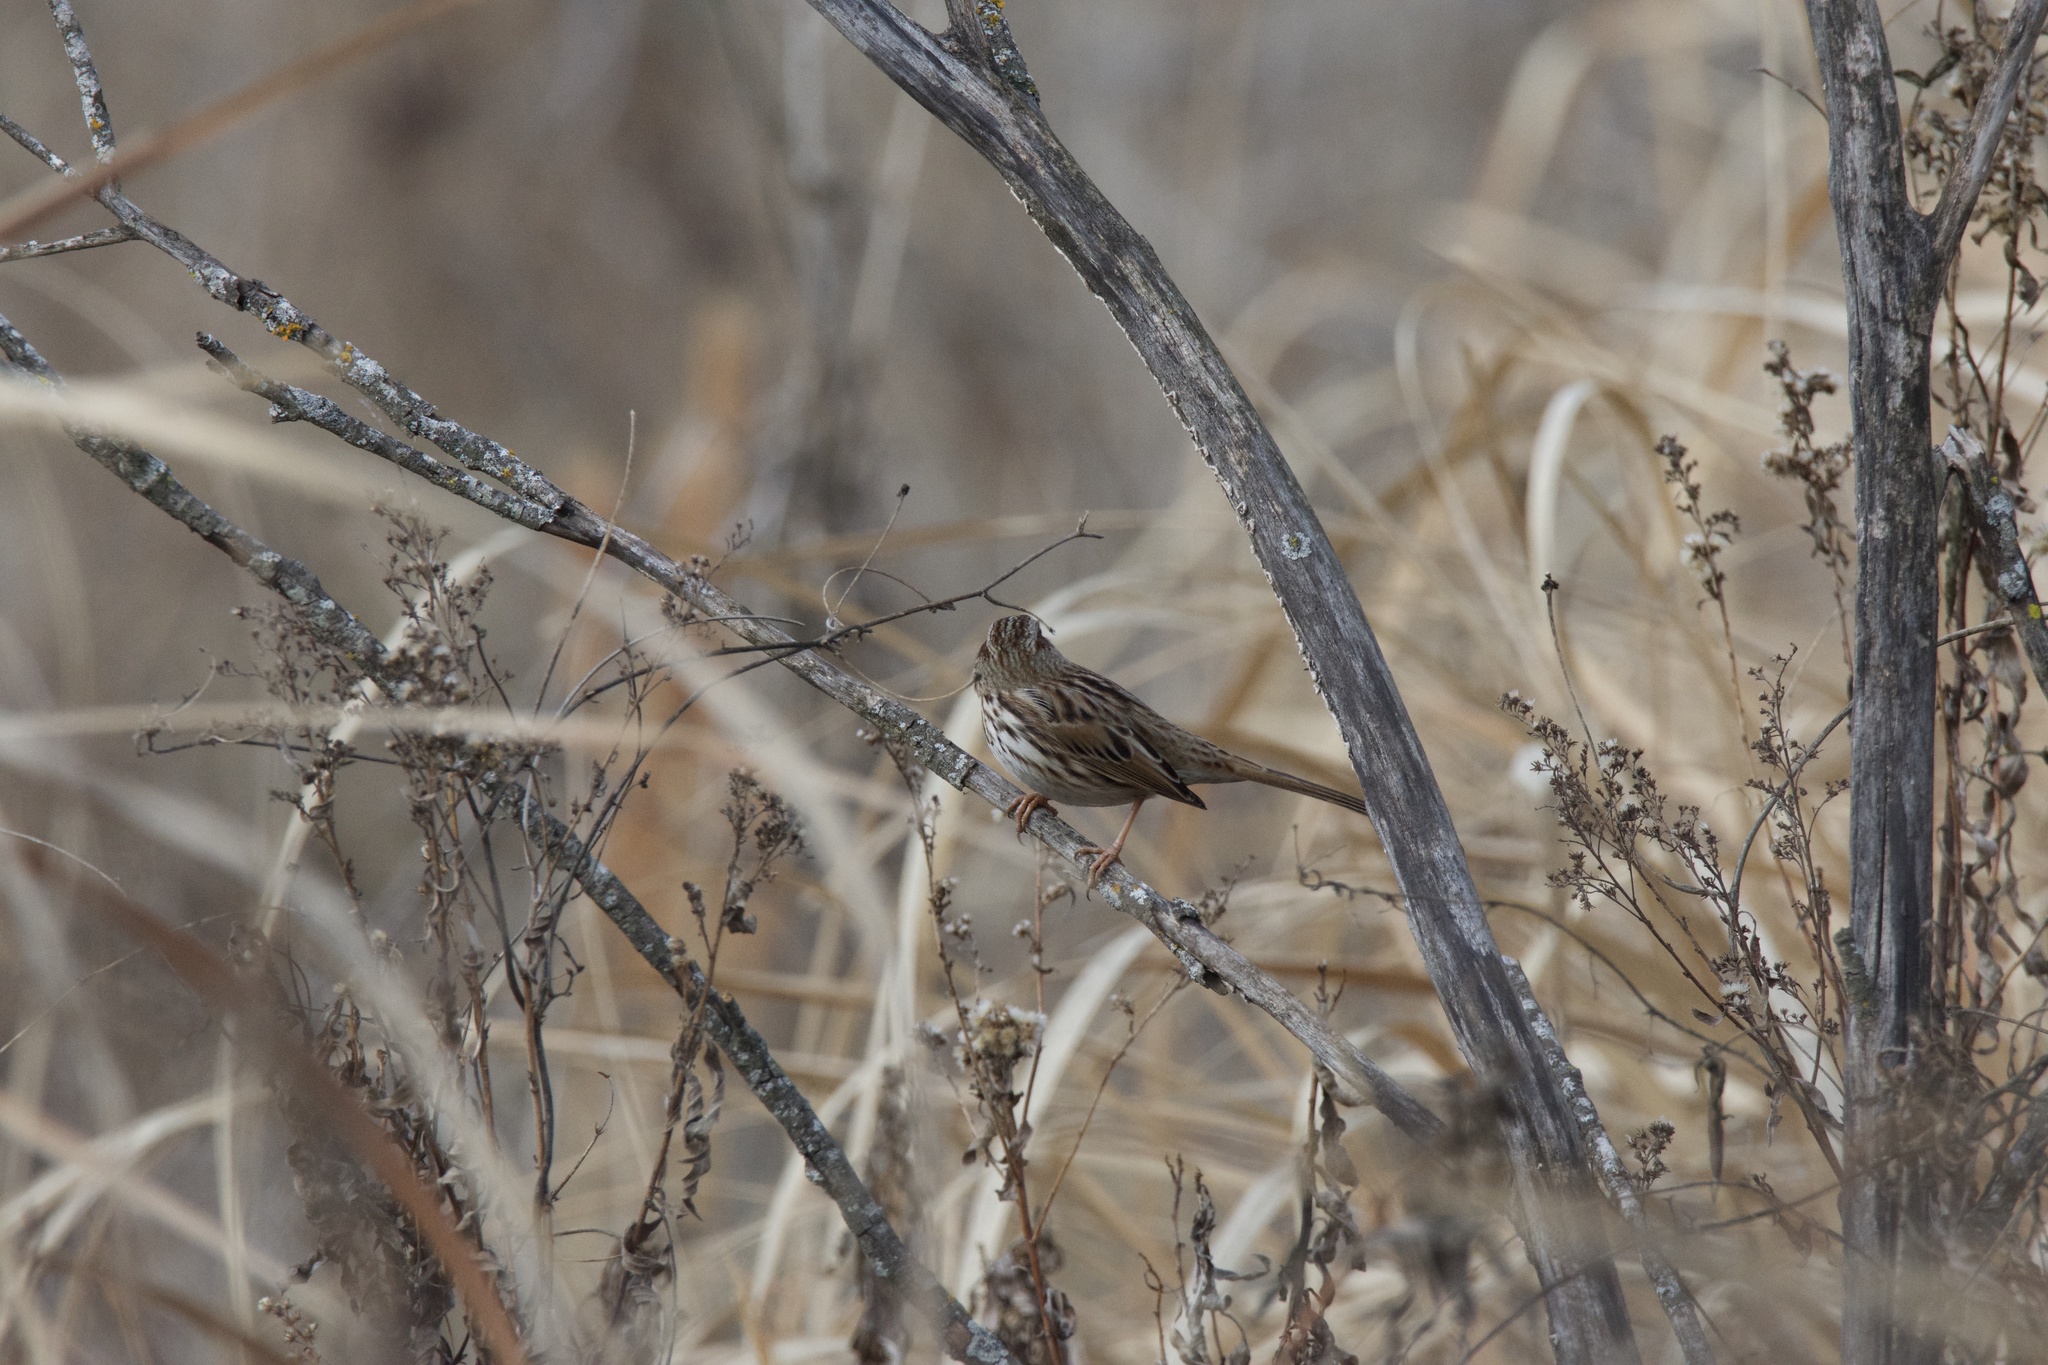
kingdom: Animalia
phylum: Chordata
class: Aves
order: Passeriformes
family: Passerellidae
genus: Melospiza
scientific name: Melospiza melodia
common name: Song sparrow
